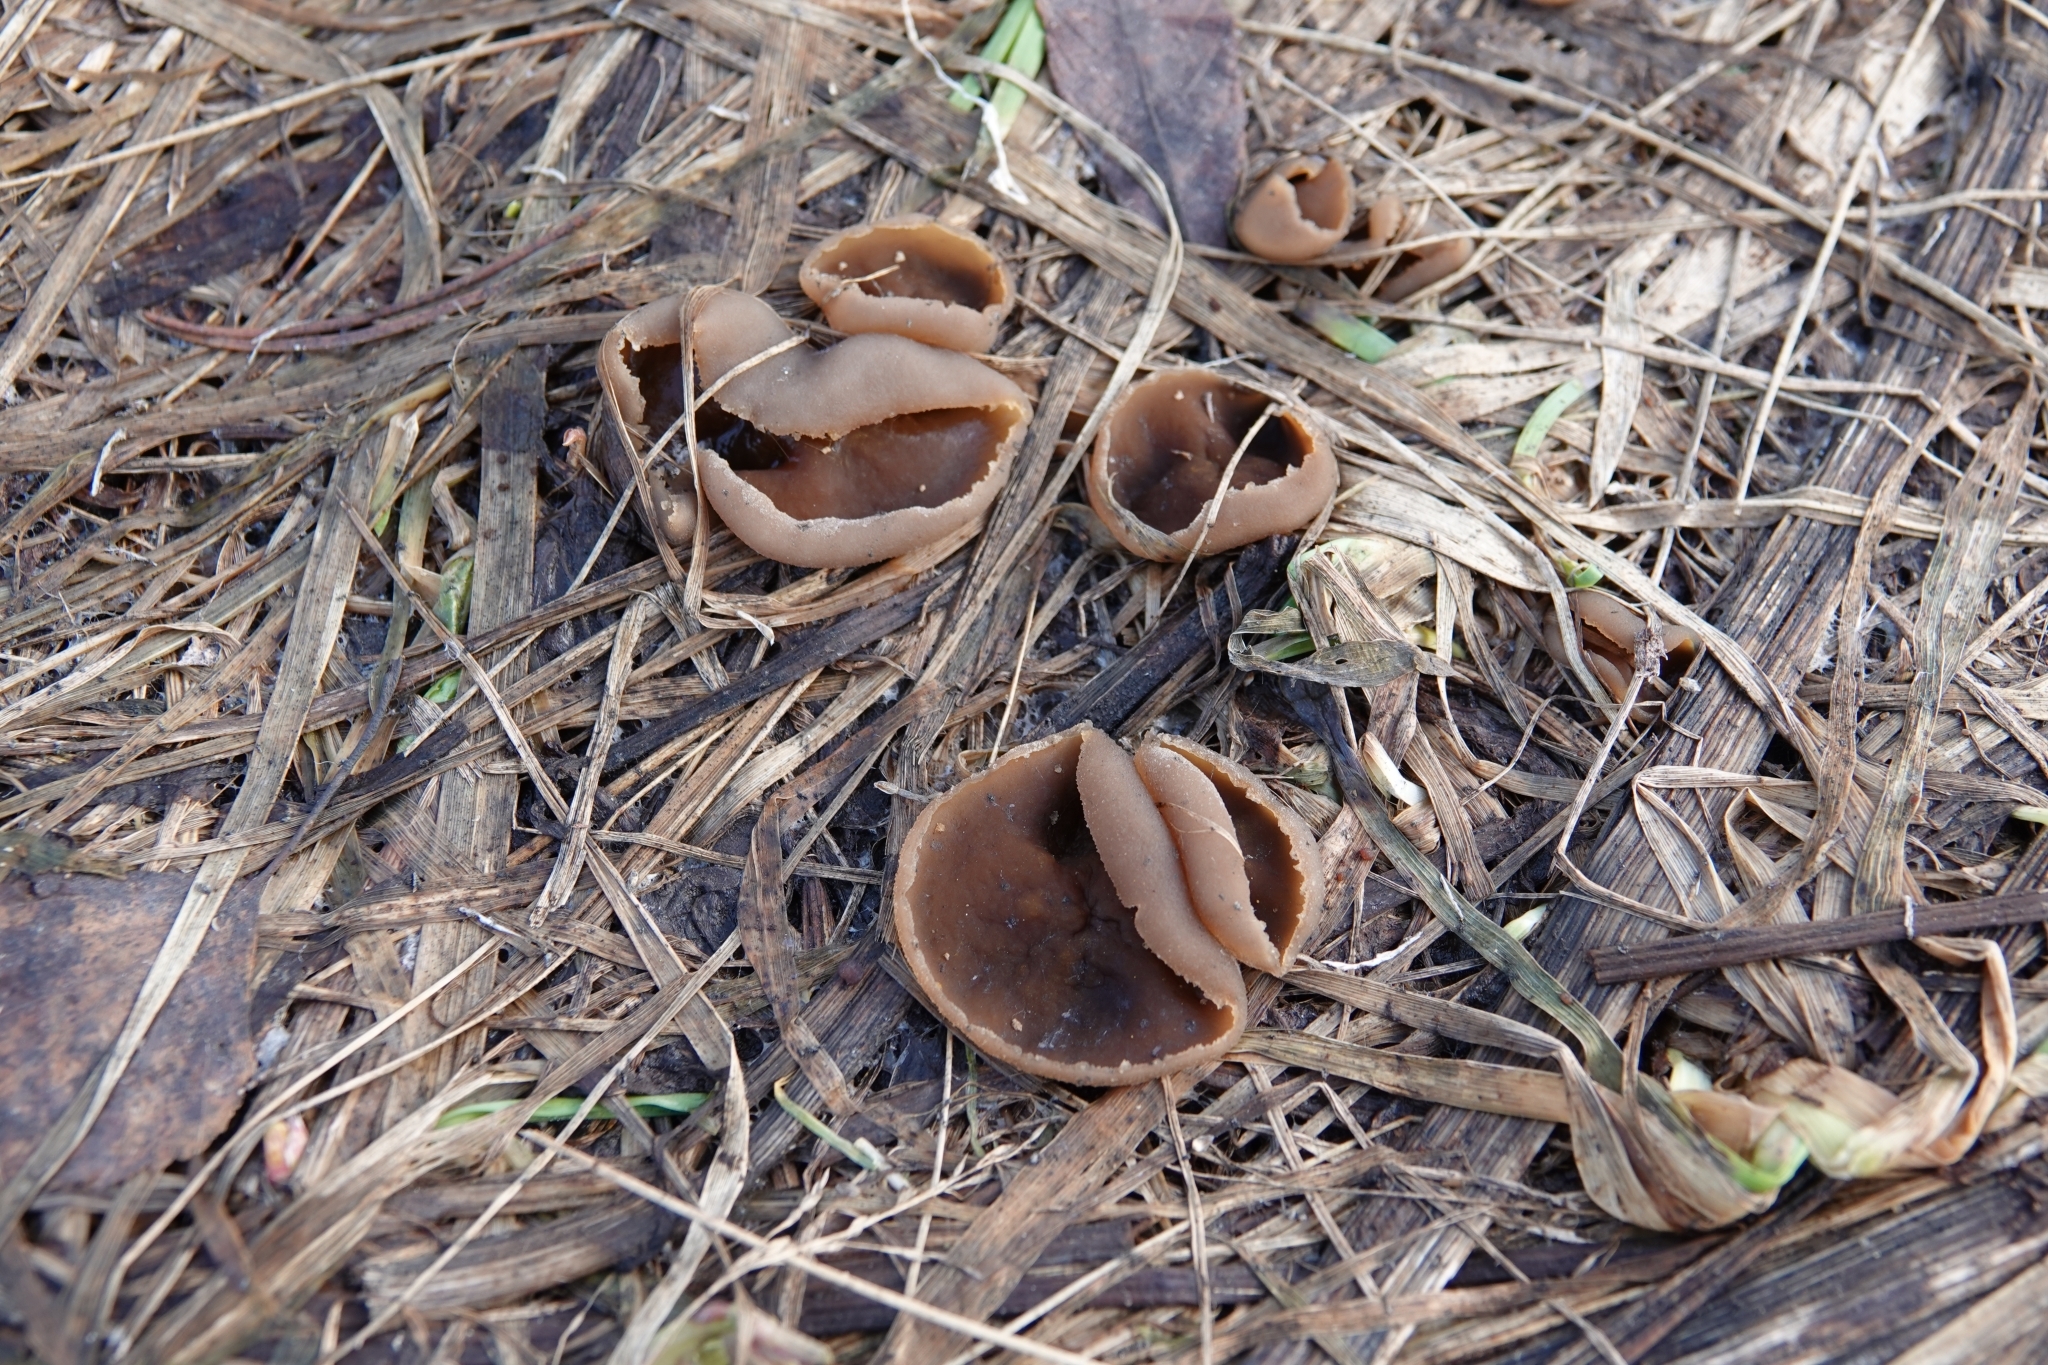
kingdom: Fungi
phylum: Ascomycota
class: Pezizomycetes
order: Pezizales
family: Discinaceae
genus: Discina
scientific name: Discina
